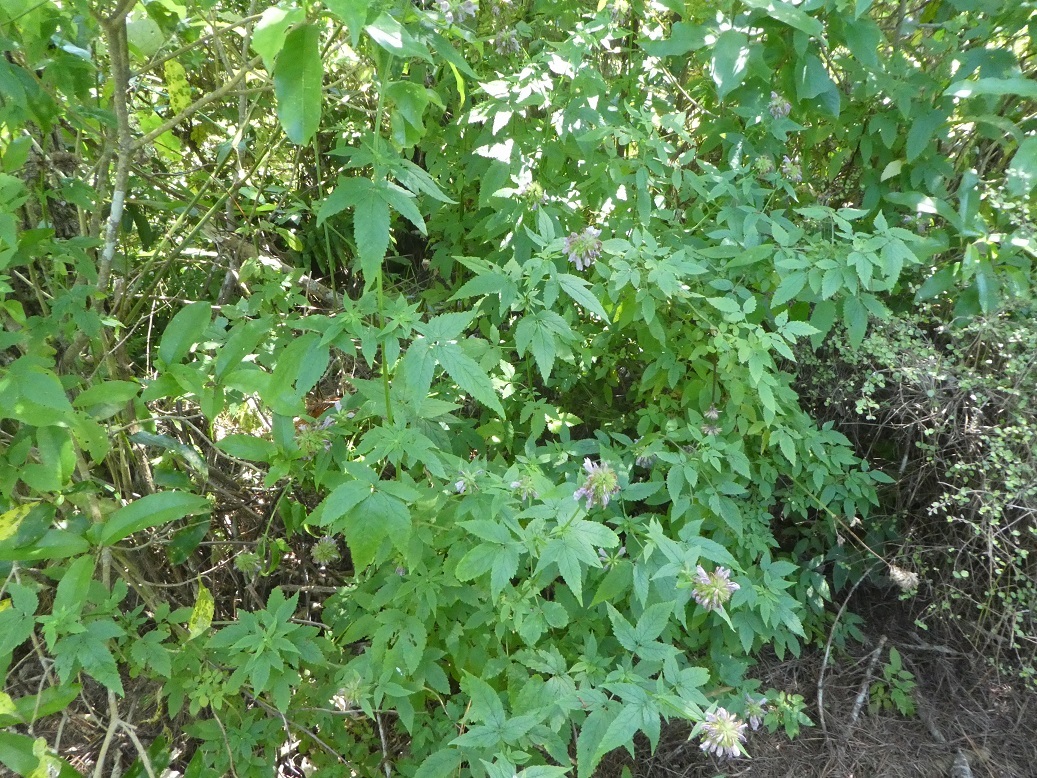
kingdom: Plantae
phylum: Tracheophyta
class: Magnoliopsida
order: Lamiales
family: Lamiaceae
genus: Cedronella
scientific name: Cedronella canariensis
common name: Canary islands balm
